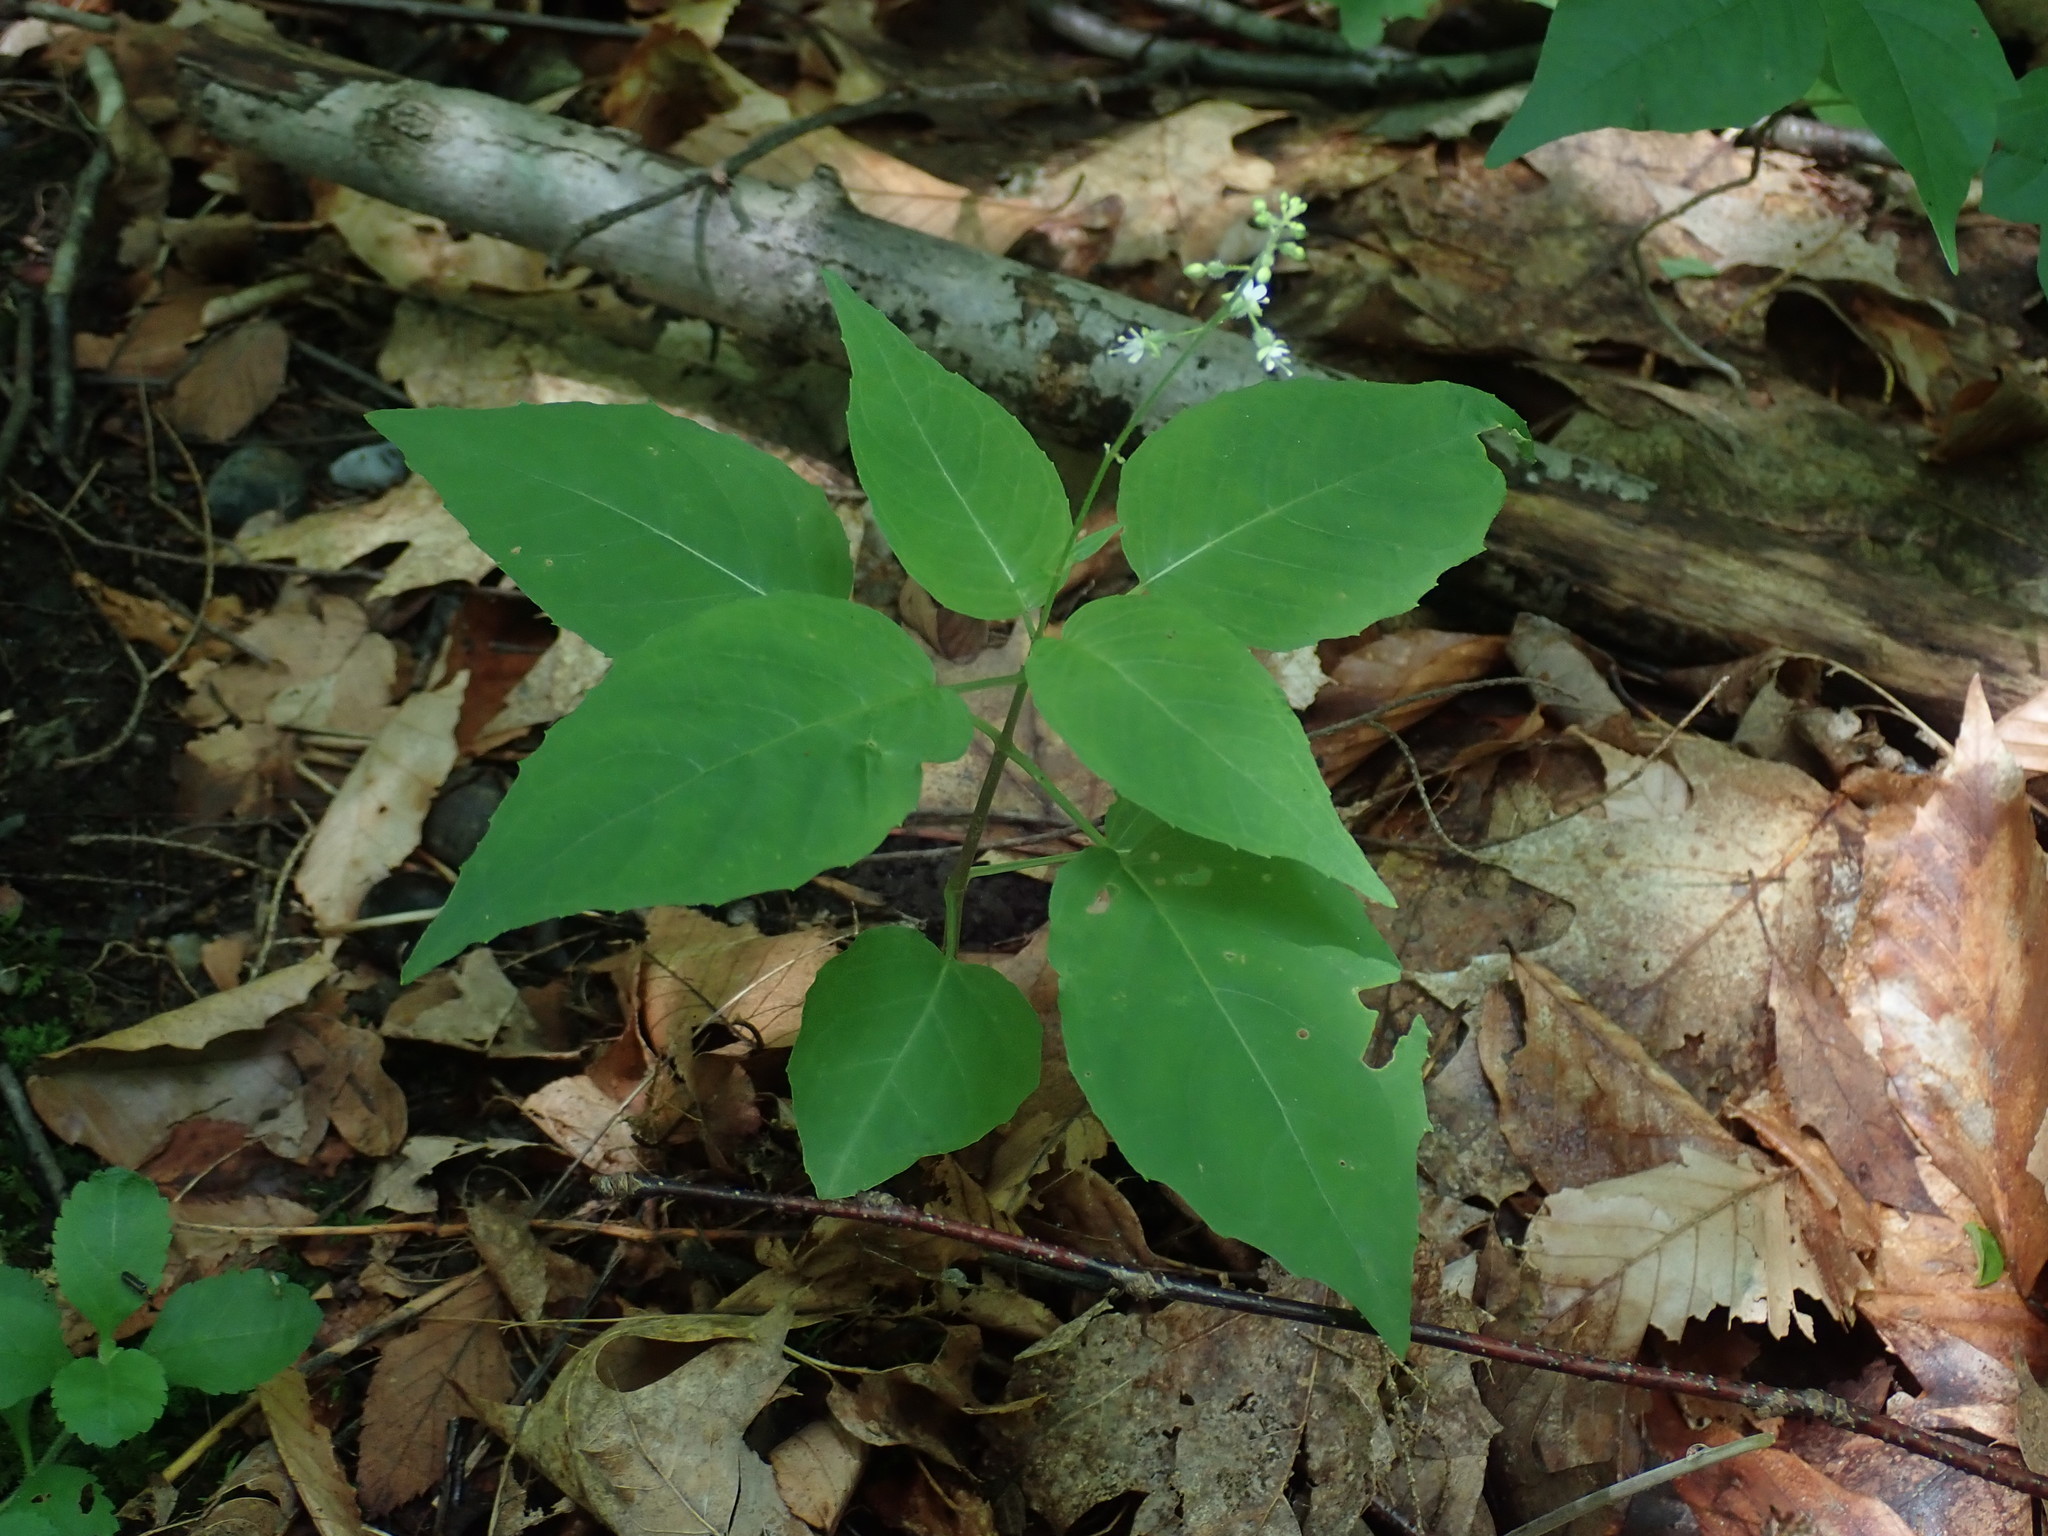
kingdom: Plantae
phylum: Tracheophyta
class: Magnoliopsida
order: Myrtales
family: Onagraceae
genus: Circaea
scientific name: Circaea canadensis
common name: Broad-leaved enchanter's nightshade
